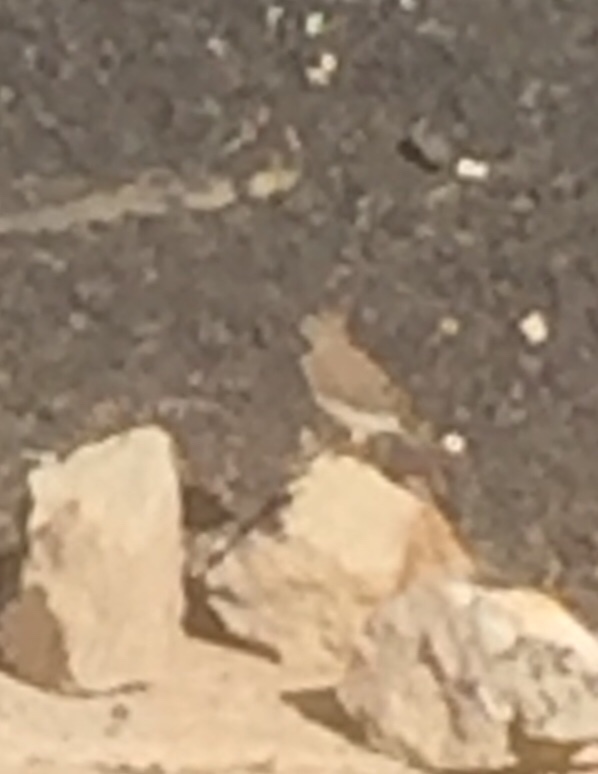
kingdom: Animalia
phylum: Chordata
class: Aves
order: Passeriformes
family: Motacillidae
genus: Anthus
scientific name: Anthus berthelotii
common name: Berthelot's pipit
